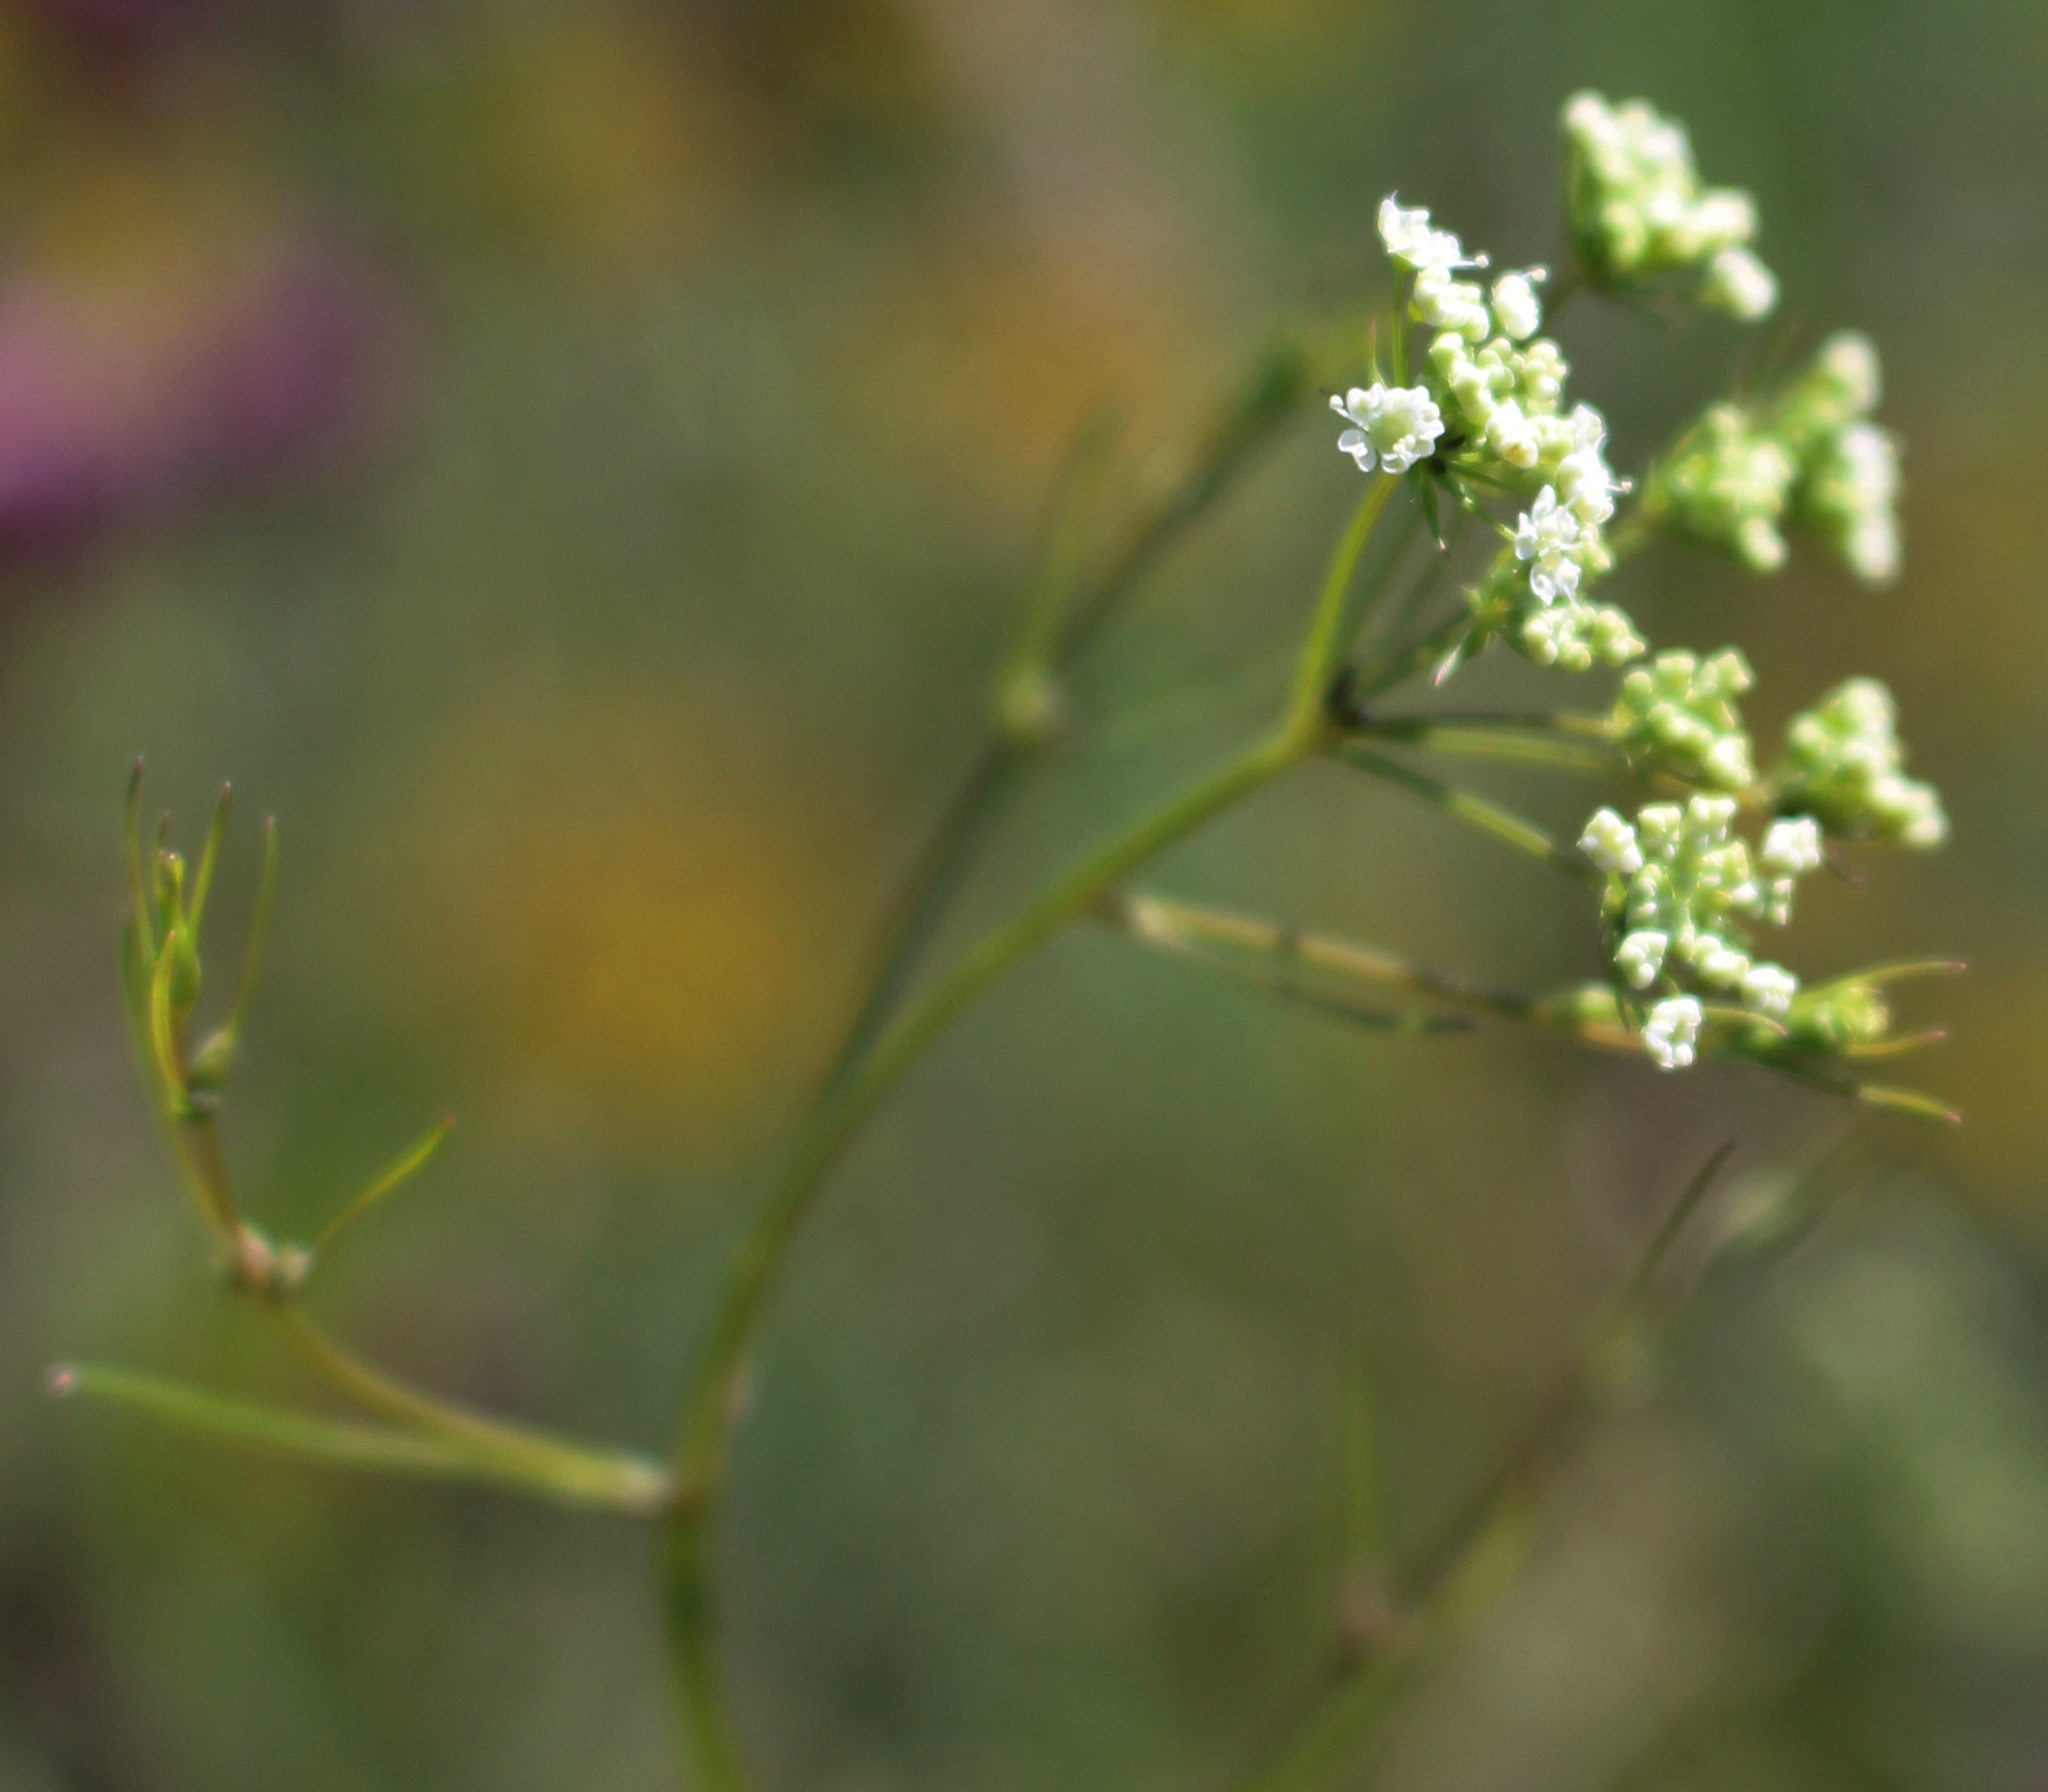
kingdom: Plantae
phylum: Tracheophyta
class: Magnoliopsida
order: Apiales
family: Apiaceae
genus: Cicuta
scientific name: Cicuta bulbifera
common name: Bulb-bearing water-hemlock
